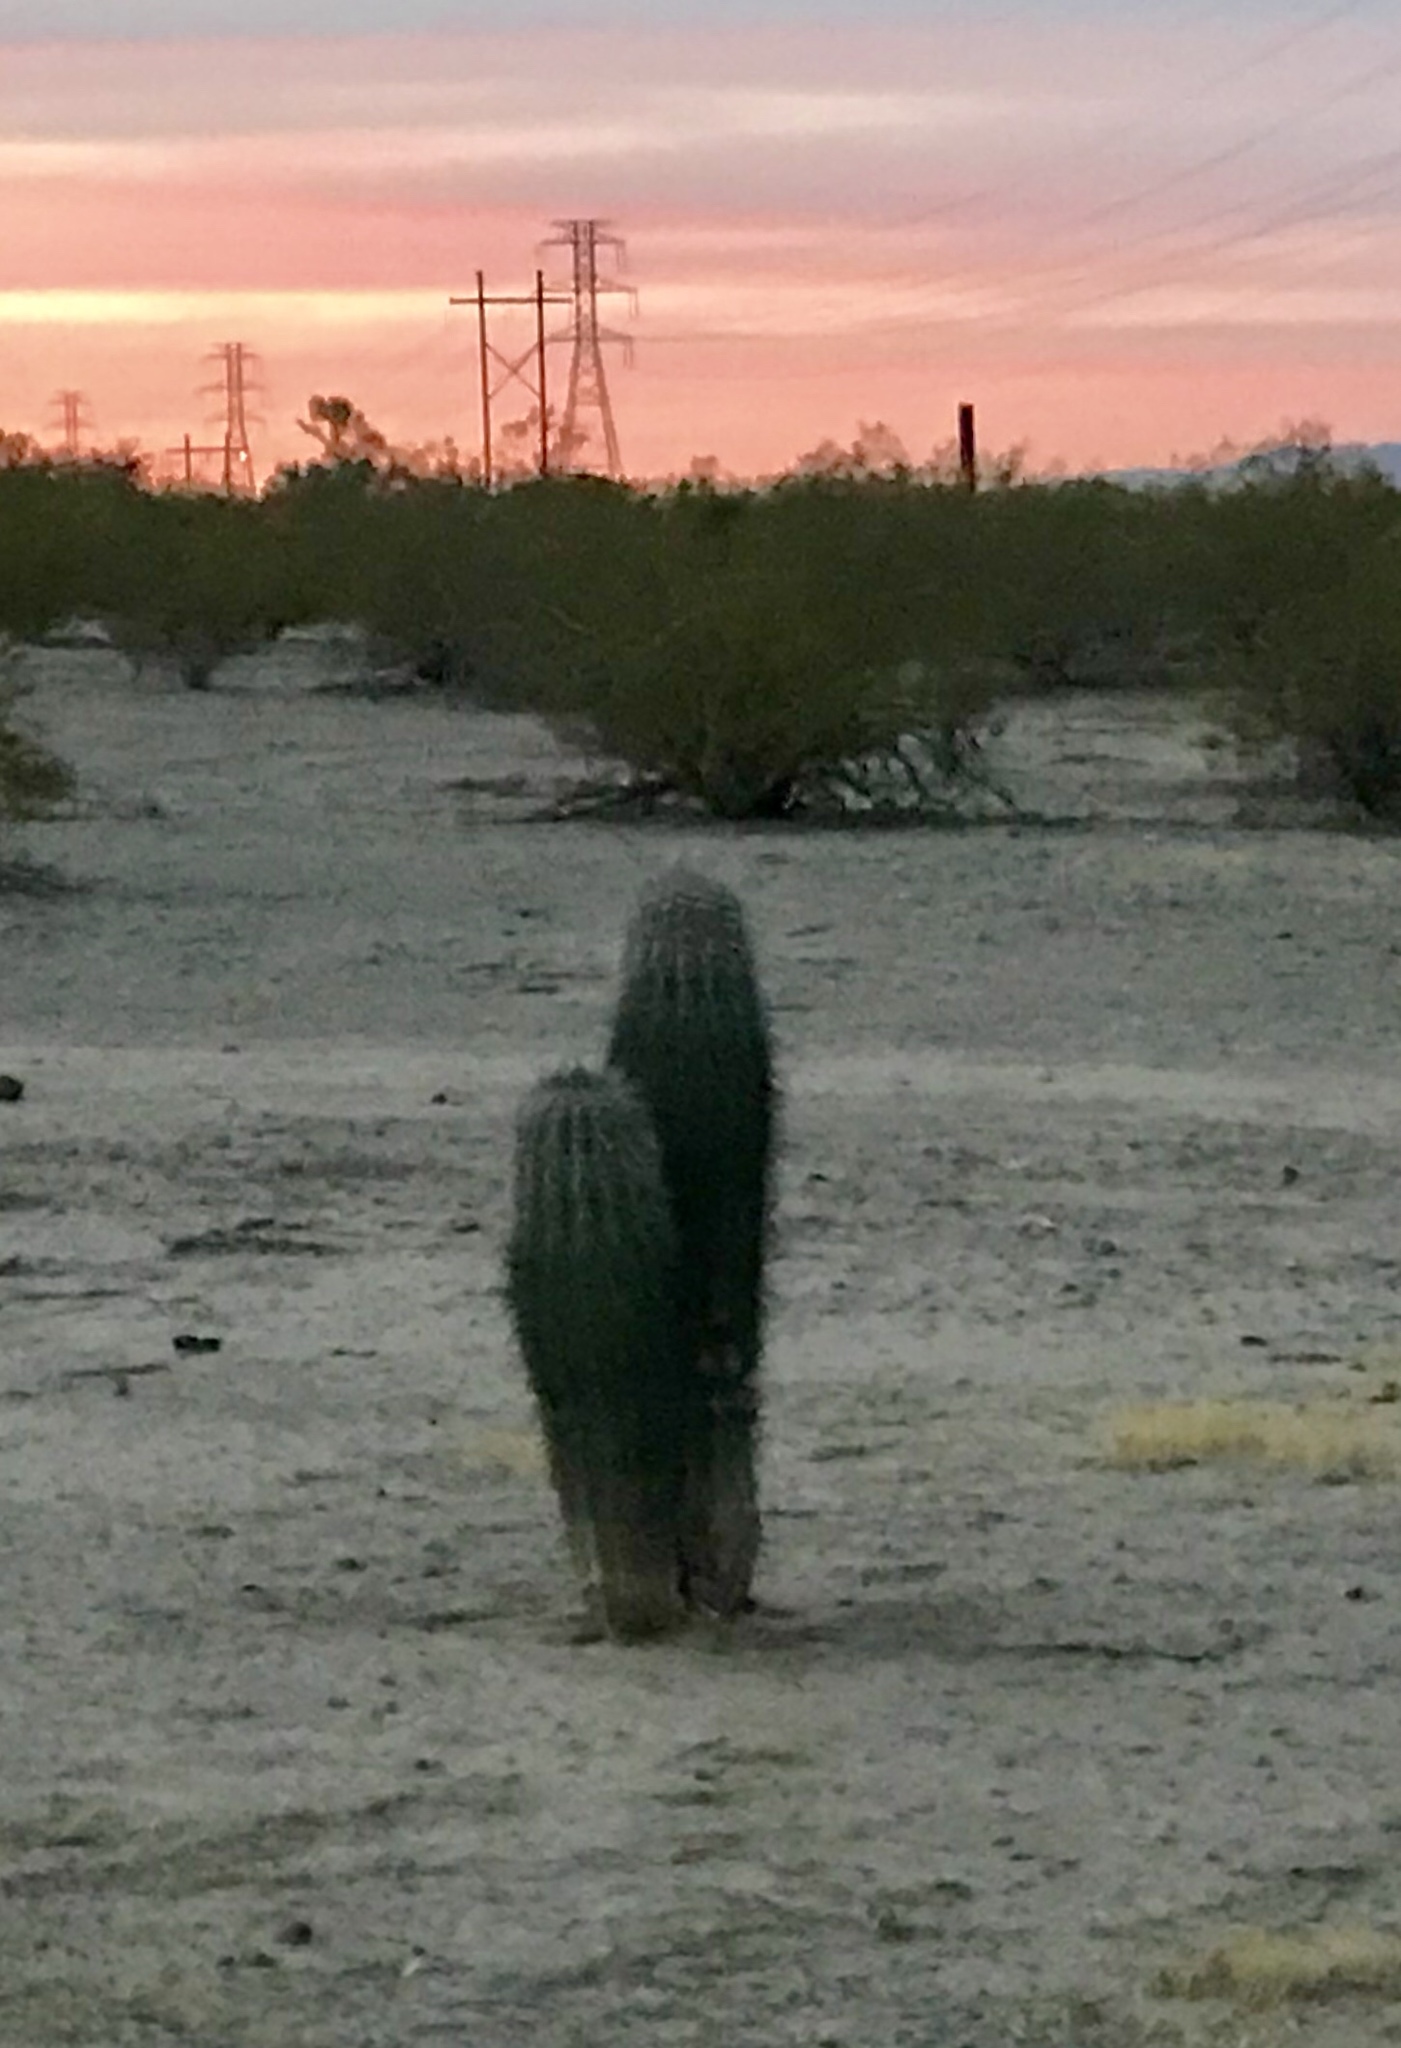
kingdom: Plantae
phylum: Tracheophyta
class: Magnoliopsida
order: Caryophyllales
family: Cactaceae
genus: Carnegiea
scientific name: Carnegiea gigantea
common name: Saguaro
